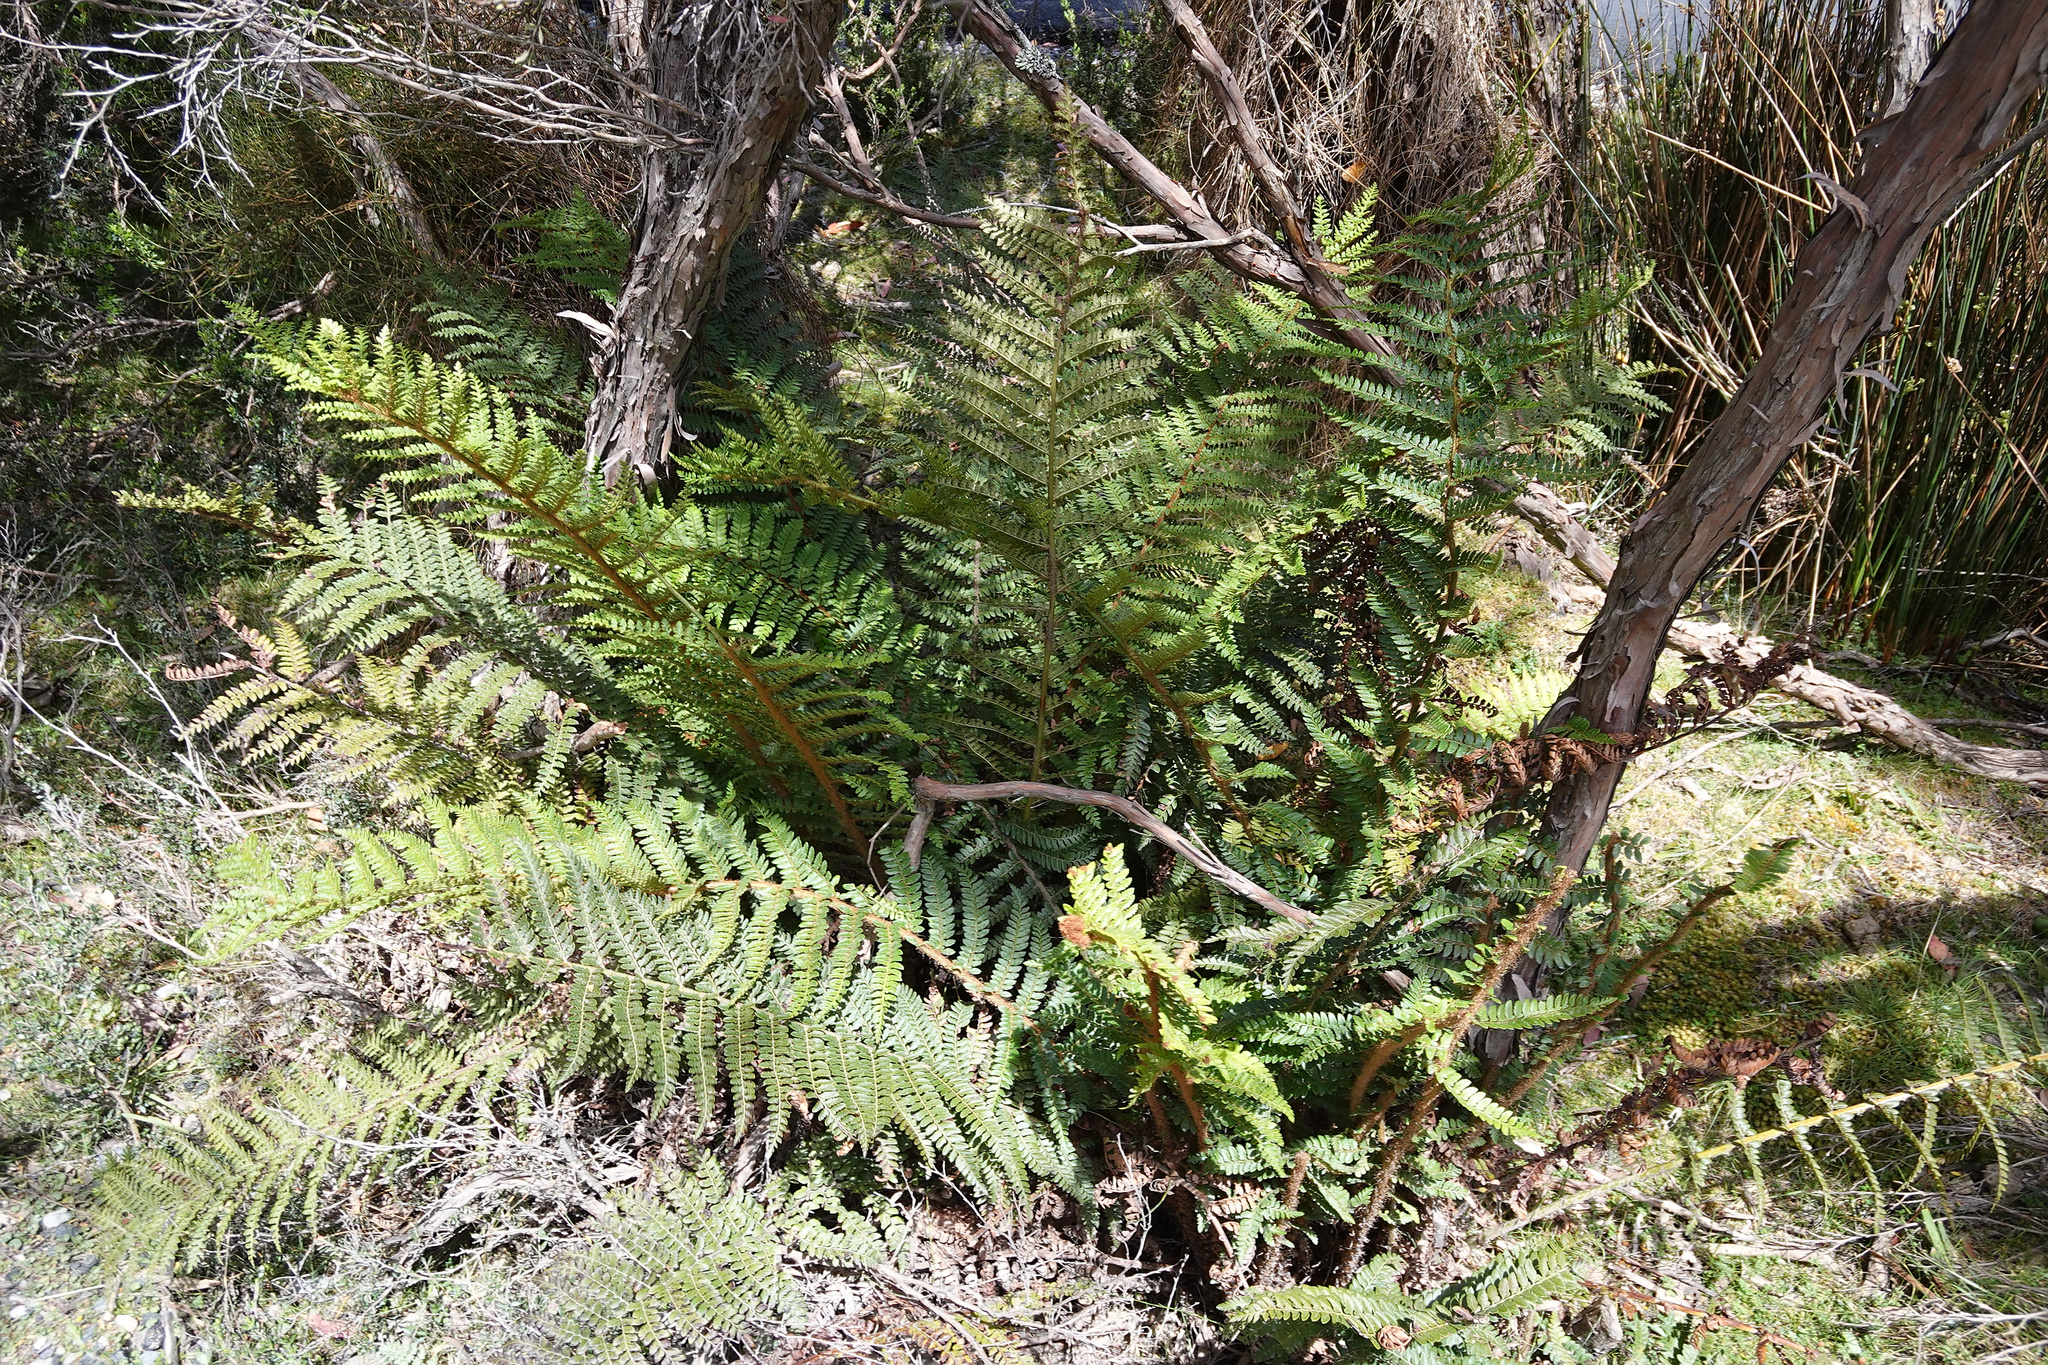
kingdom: Plantae
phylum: Tracheophyta
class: Polypodiopsida
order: Polypodiales
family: Dryopteridaceae
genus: Polystichum
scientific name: Polystichum proliferum
